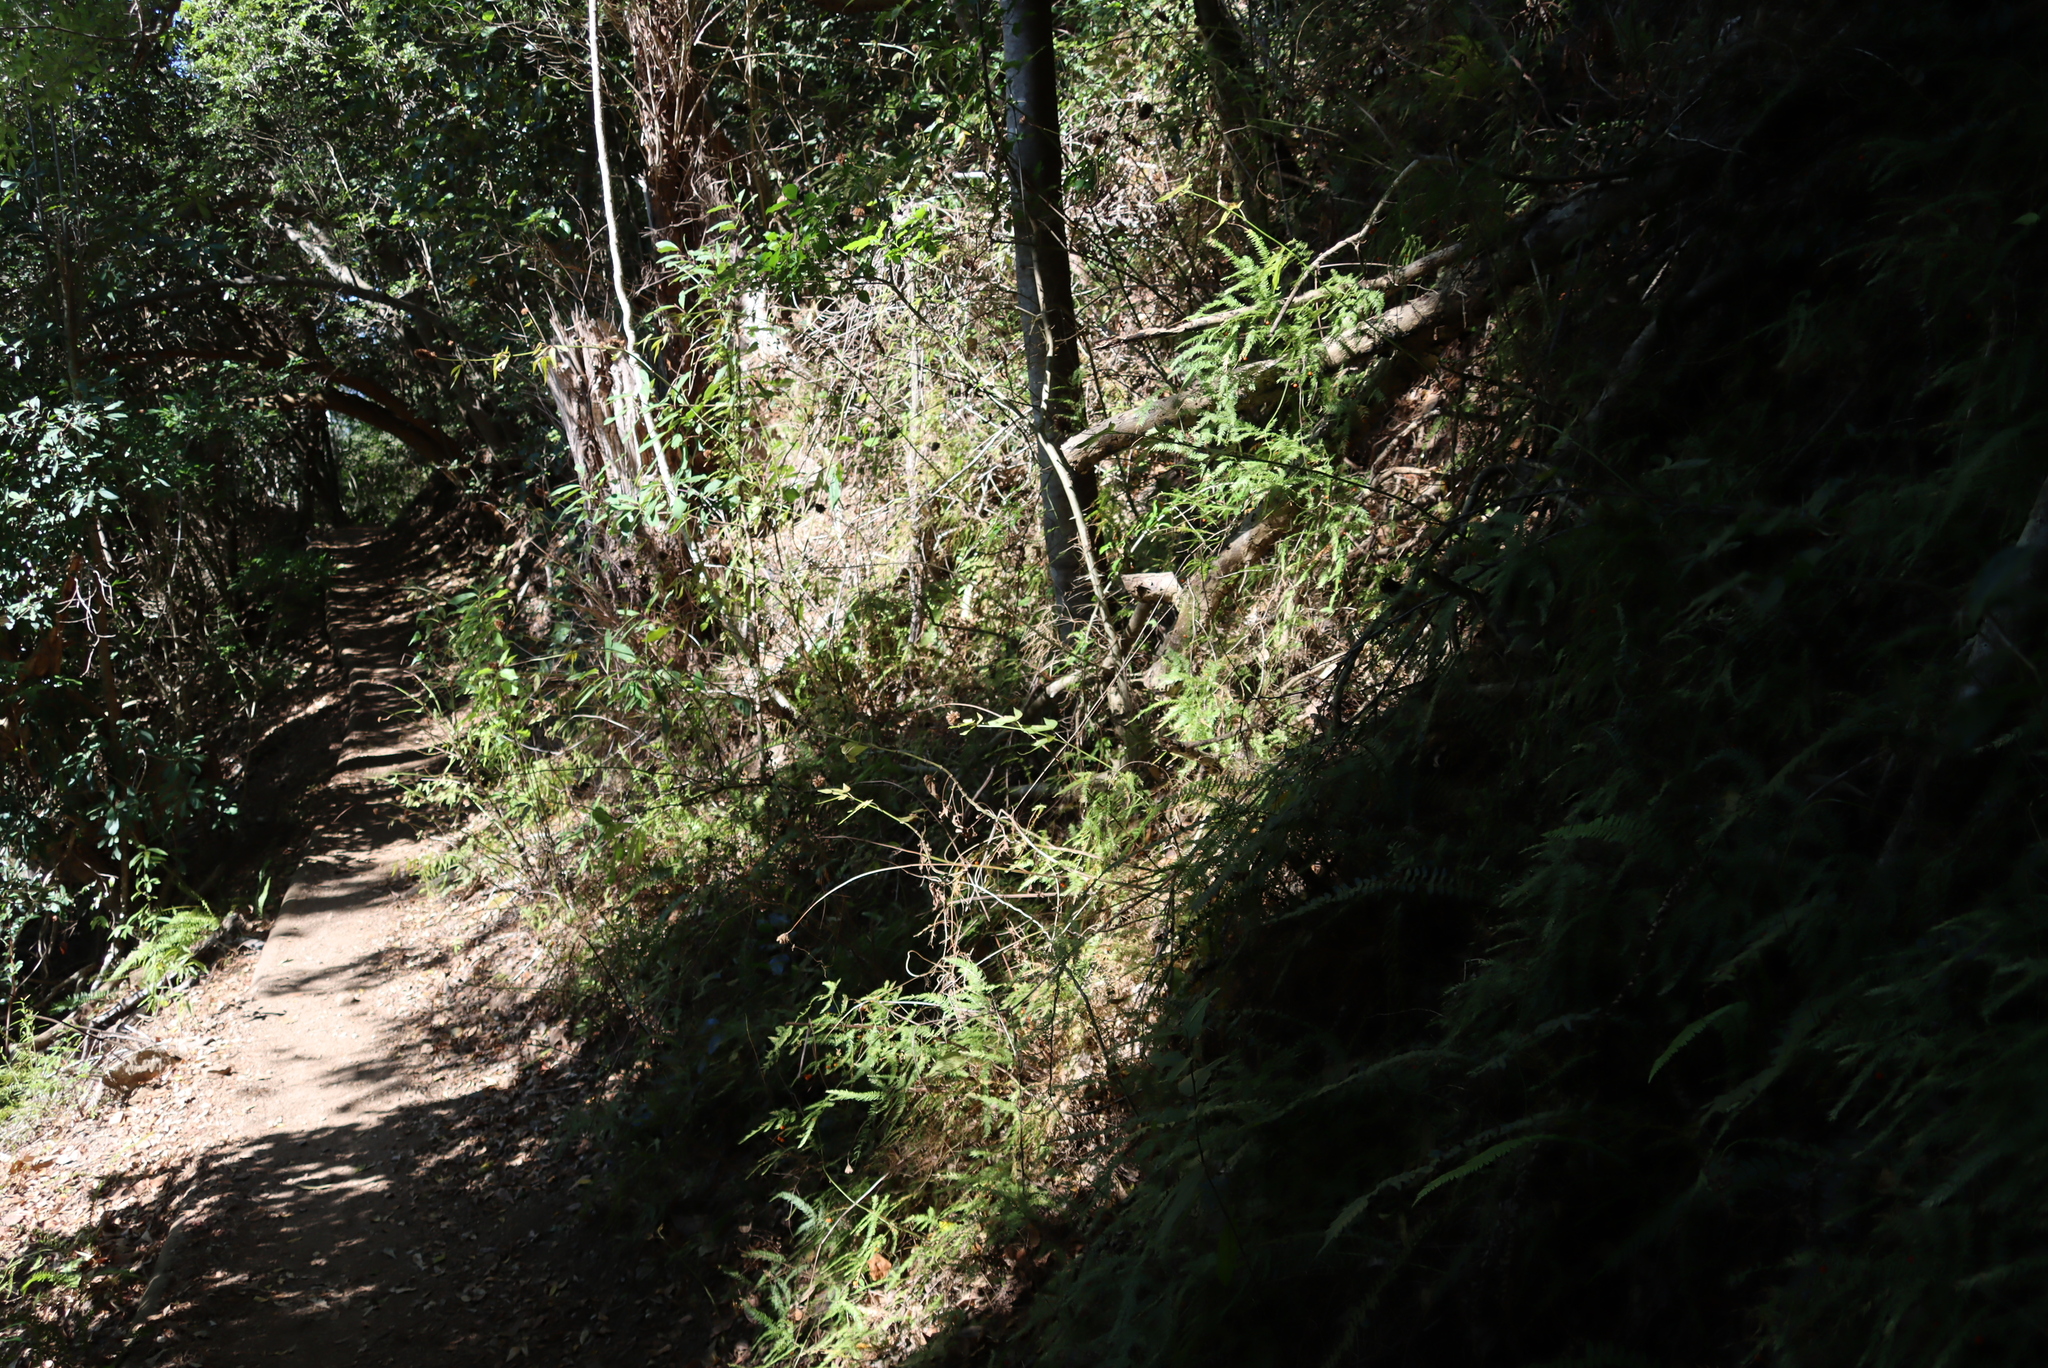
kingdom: Plantae
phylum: Tracheophyta
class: Magnoliopsida
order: Lamiales
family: Lamiaceae
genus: Cedronella
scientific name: Cedronella canariensis
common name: Canary islands balm
